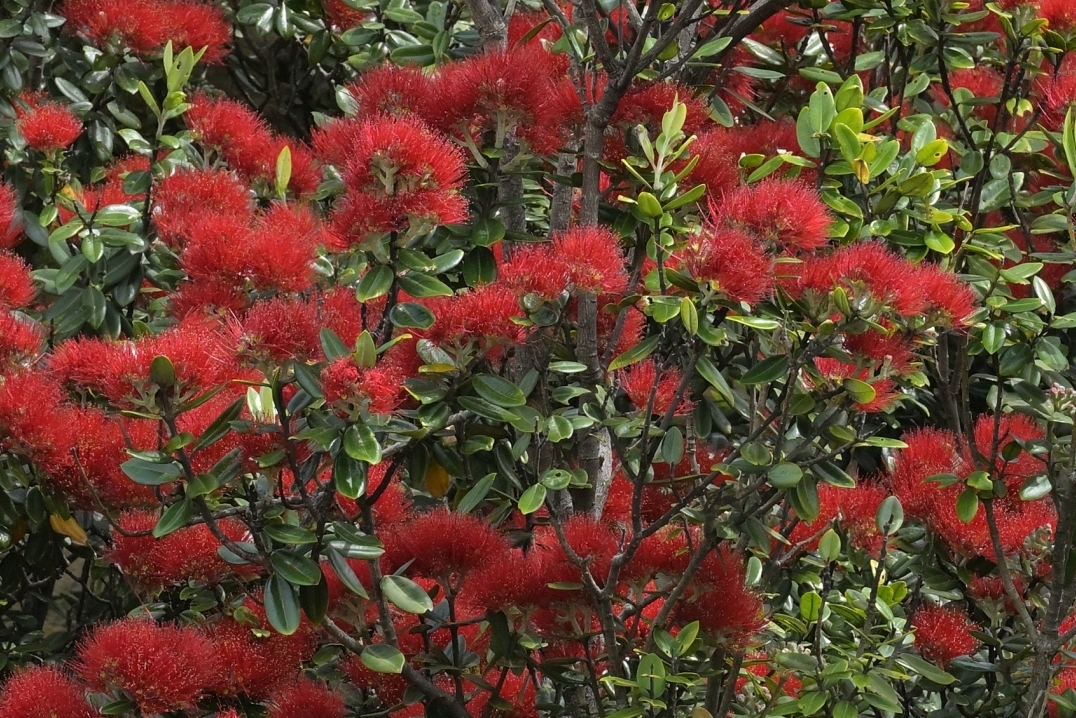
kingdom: Plantae
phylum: Tracheophyta
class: Magnoliopsida
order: Myrtales
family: Myrtaceae
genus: Metrosideros
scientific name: Metrosideros excelsa
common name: New zealand christmastree
